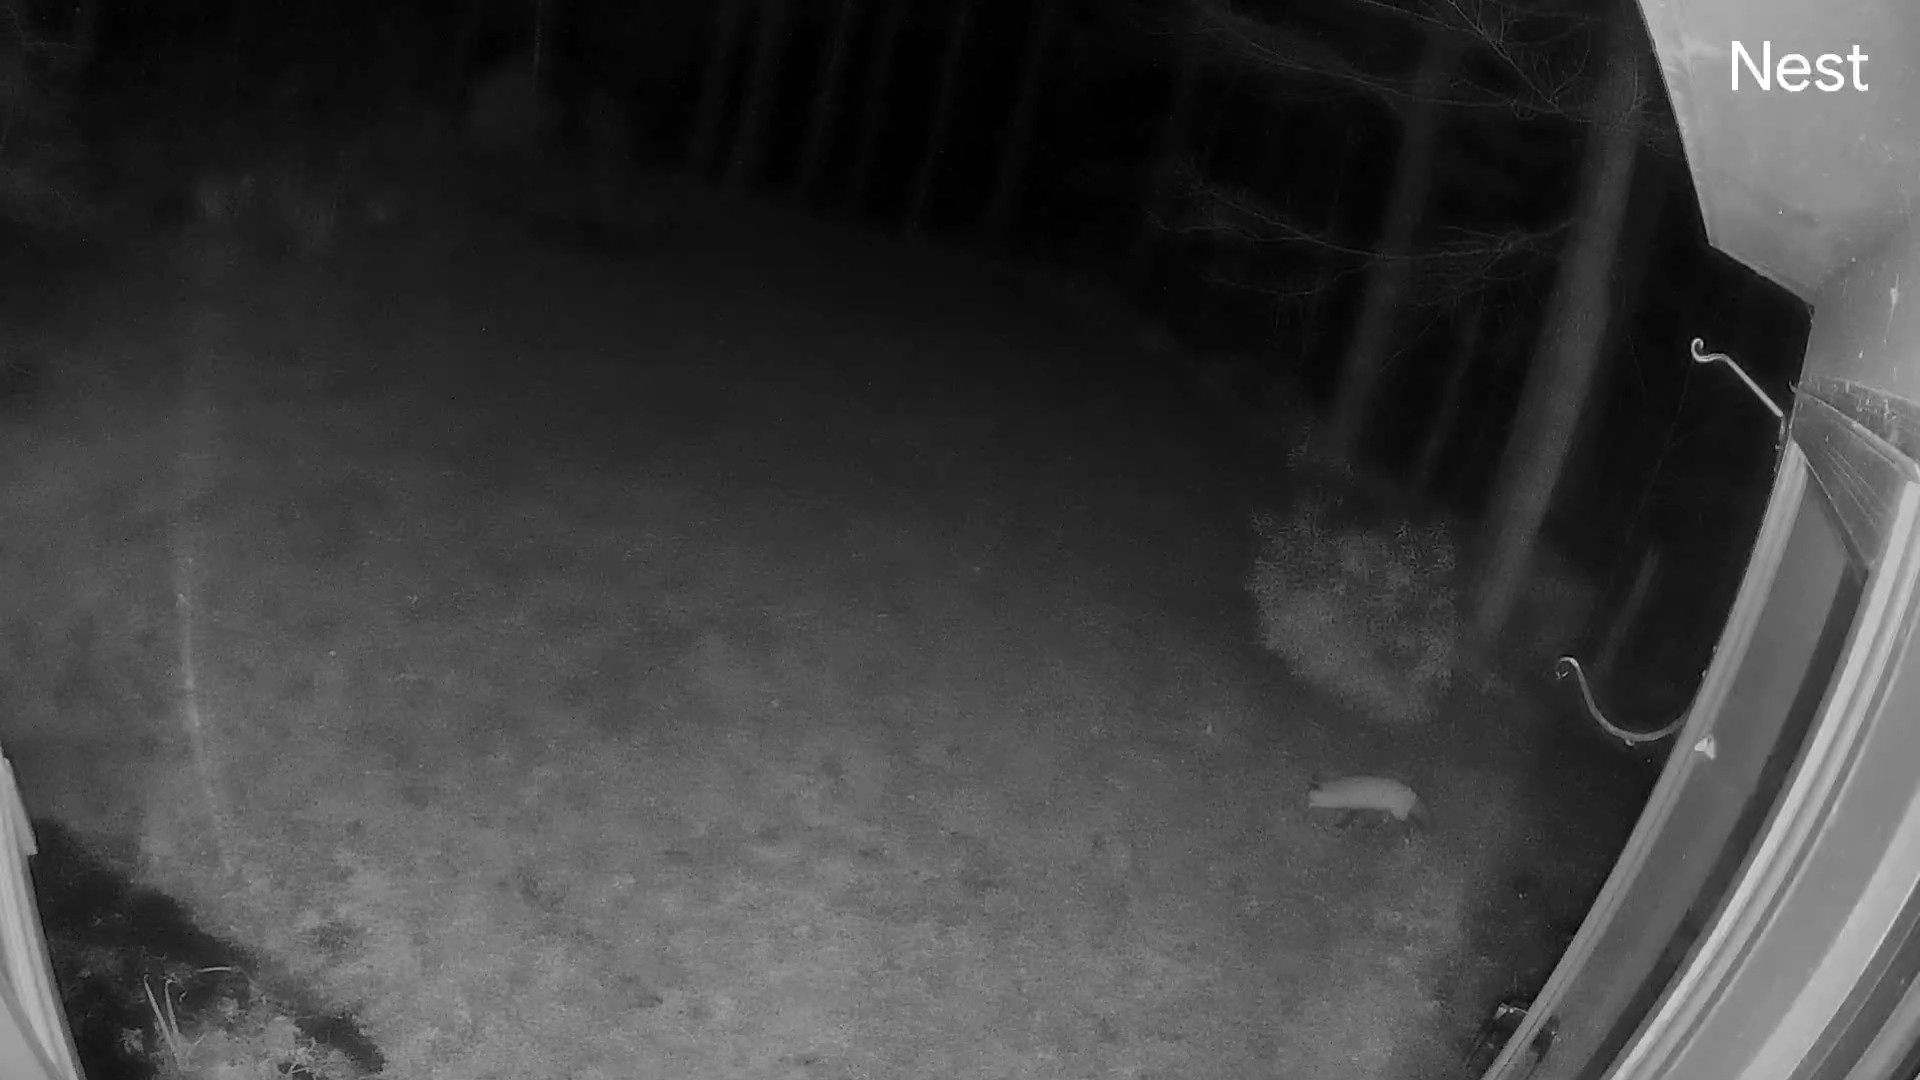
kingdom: Animalia
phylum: Chordata
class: Mammalia
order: Carnivora
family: Canidae
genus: Vulpes
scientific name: Vulpes vulpes
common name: Red fox
